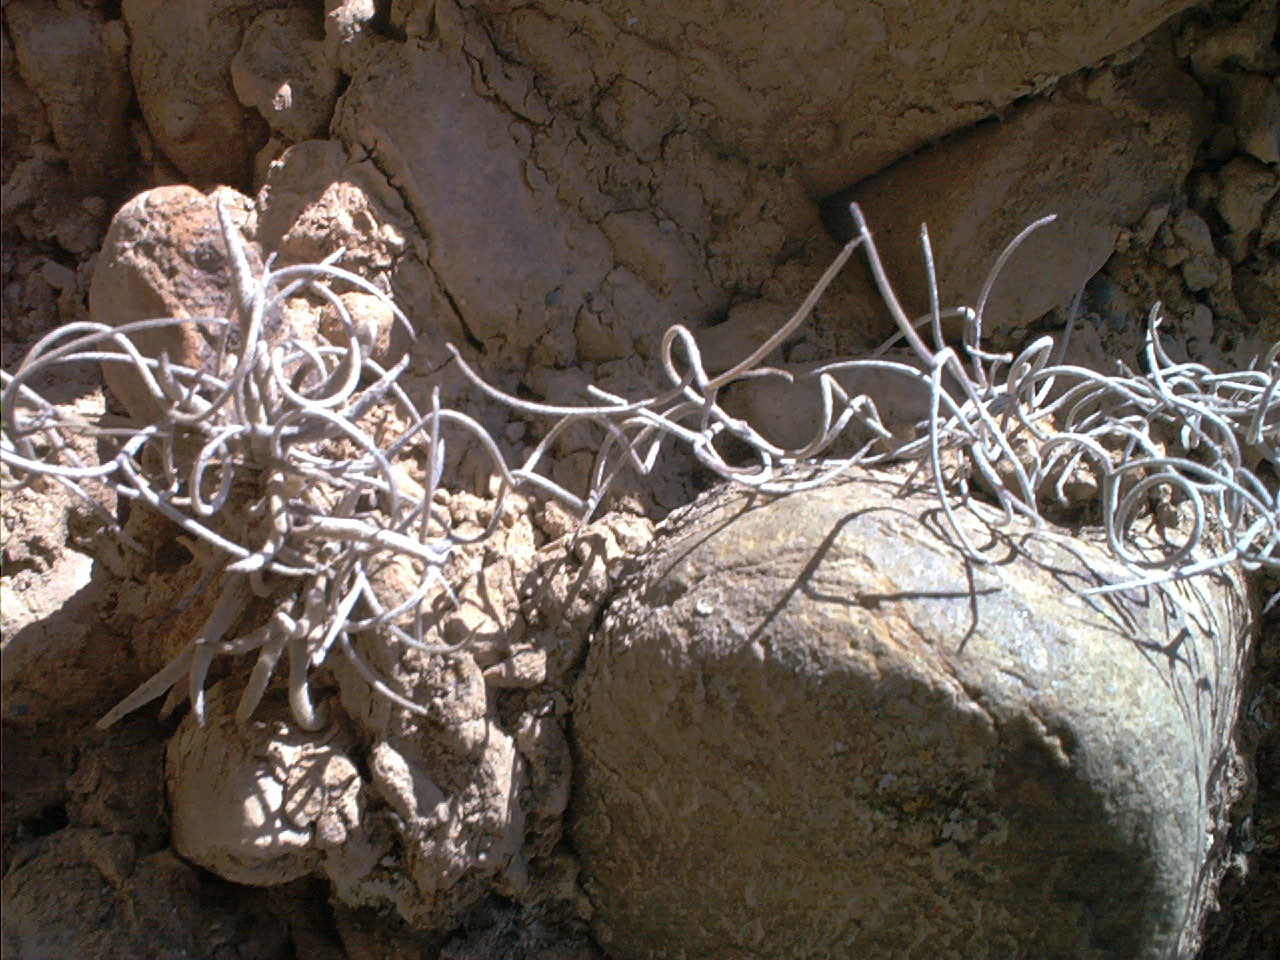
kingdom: Plantae
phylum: Tracheophyta
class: Liliopsida
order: Poales
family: Bromeliaceae
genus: Tillandsia
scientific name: Tillandsia usneoides
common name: Spanish moss
